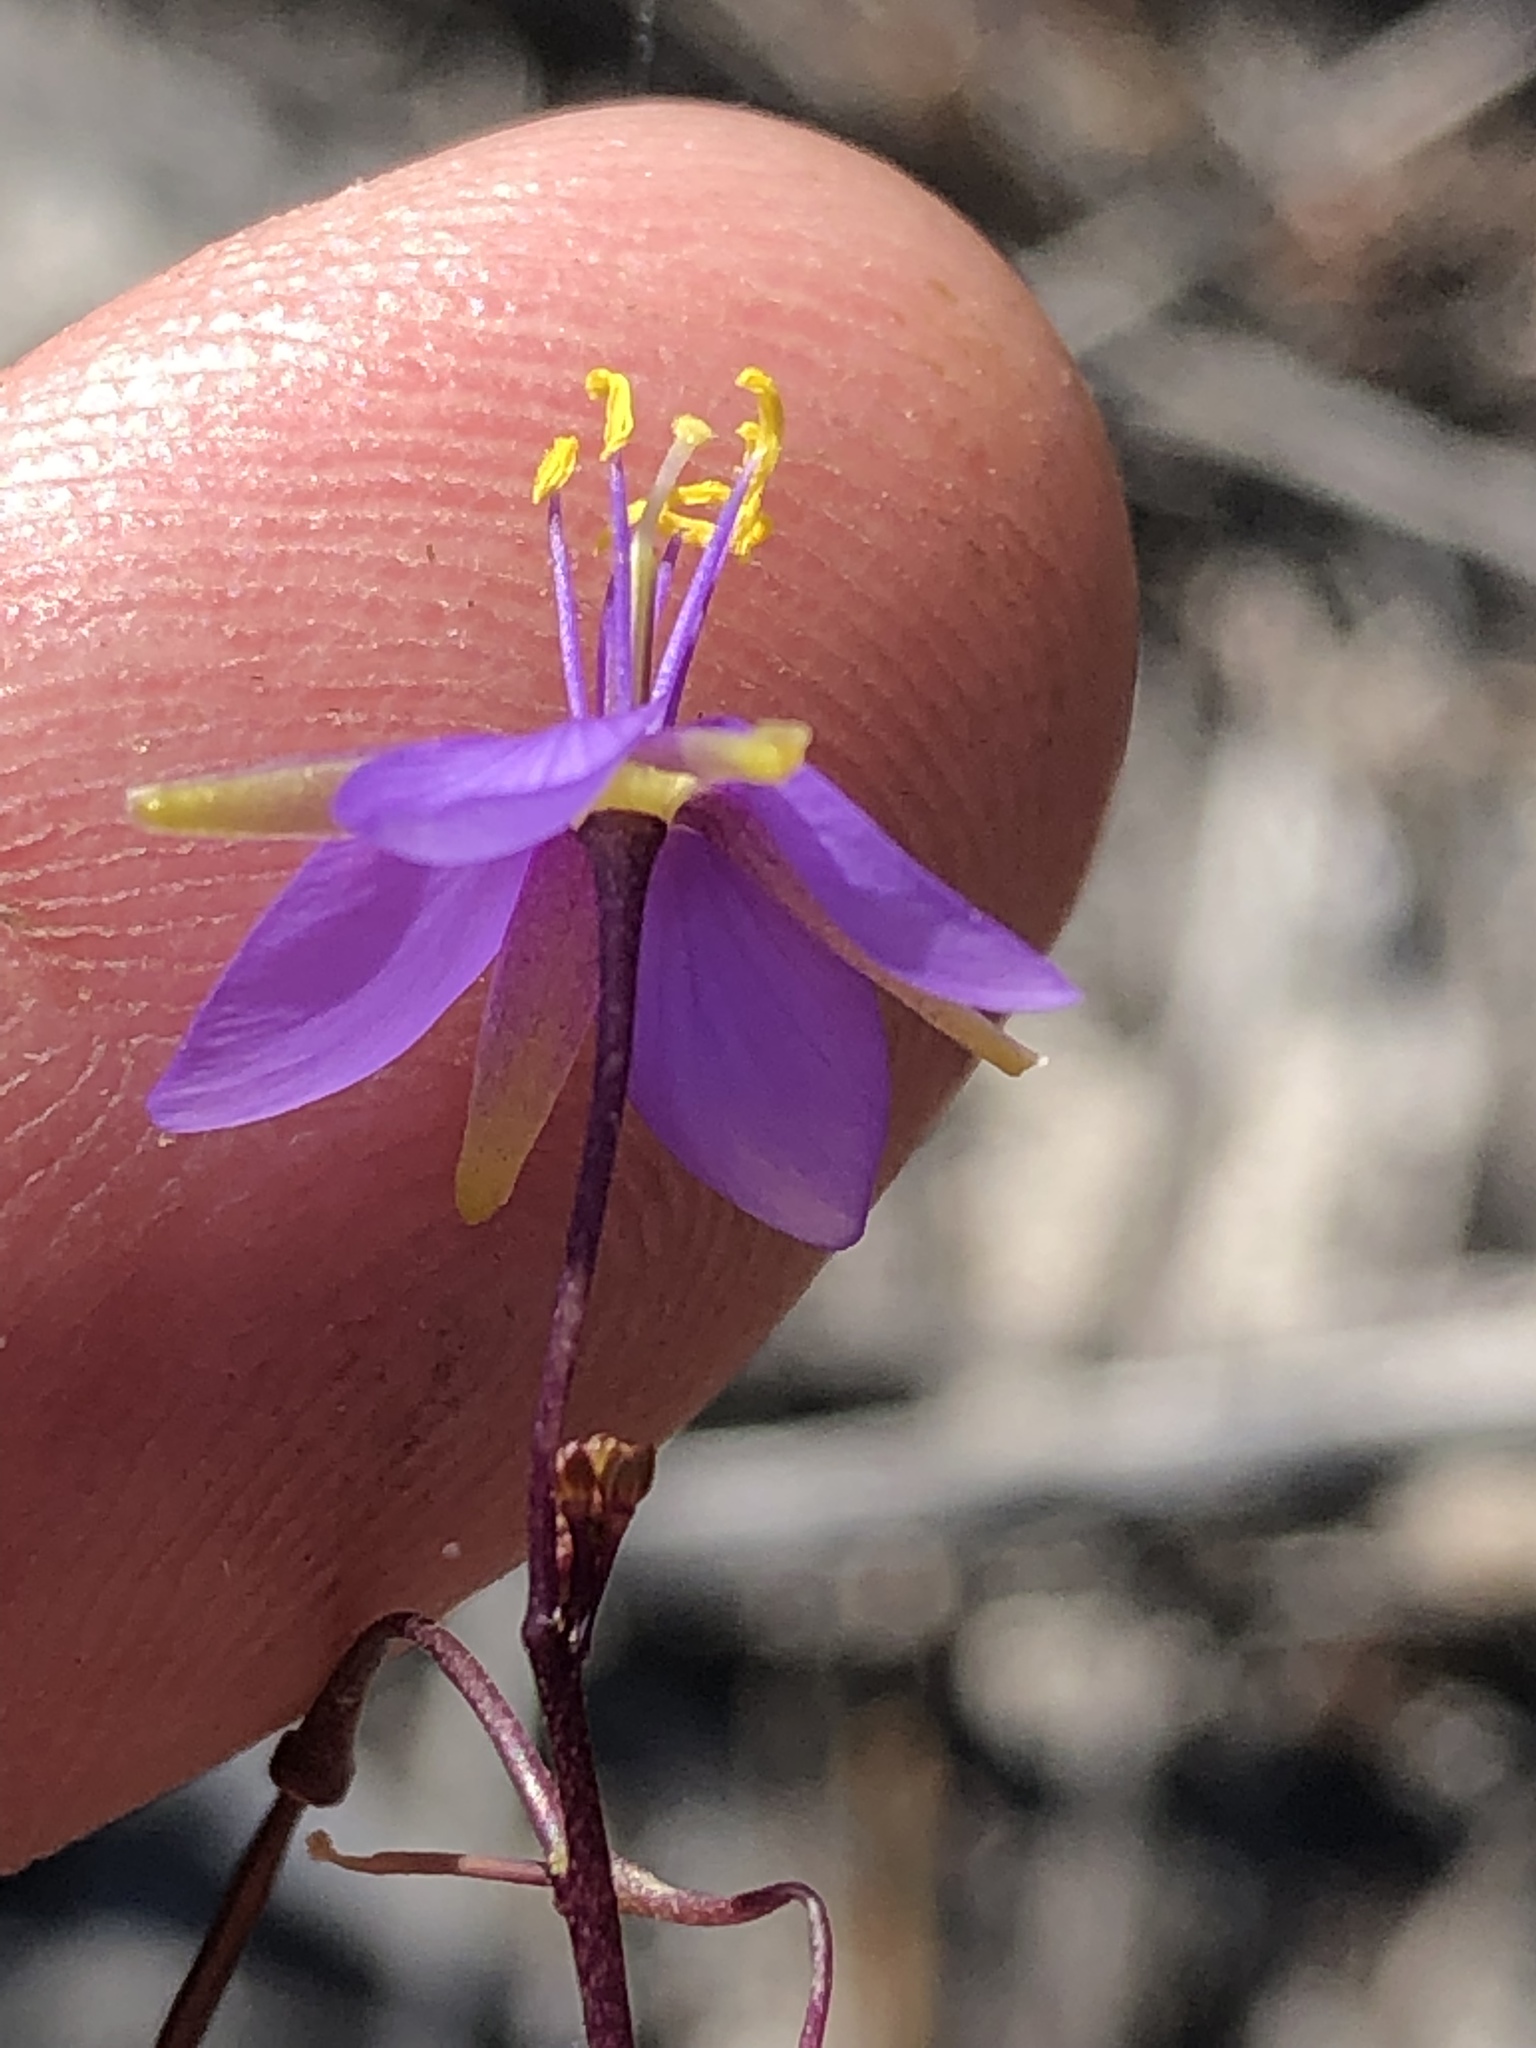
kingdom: Plantae
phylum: Tracheophyta
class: Magnoliopsida
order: Brassicales
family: Brassicaceae
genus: Heliophila
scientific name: Heliophila subulata
